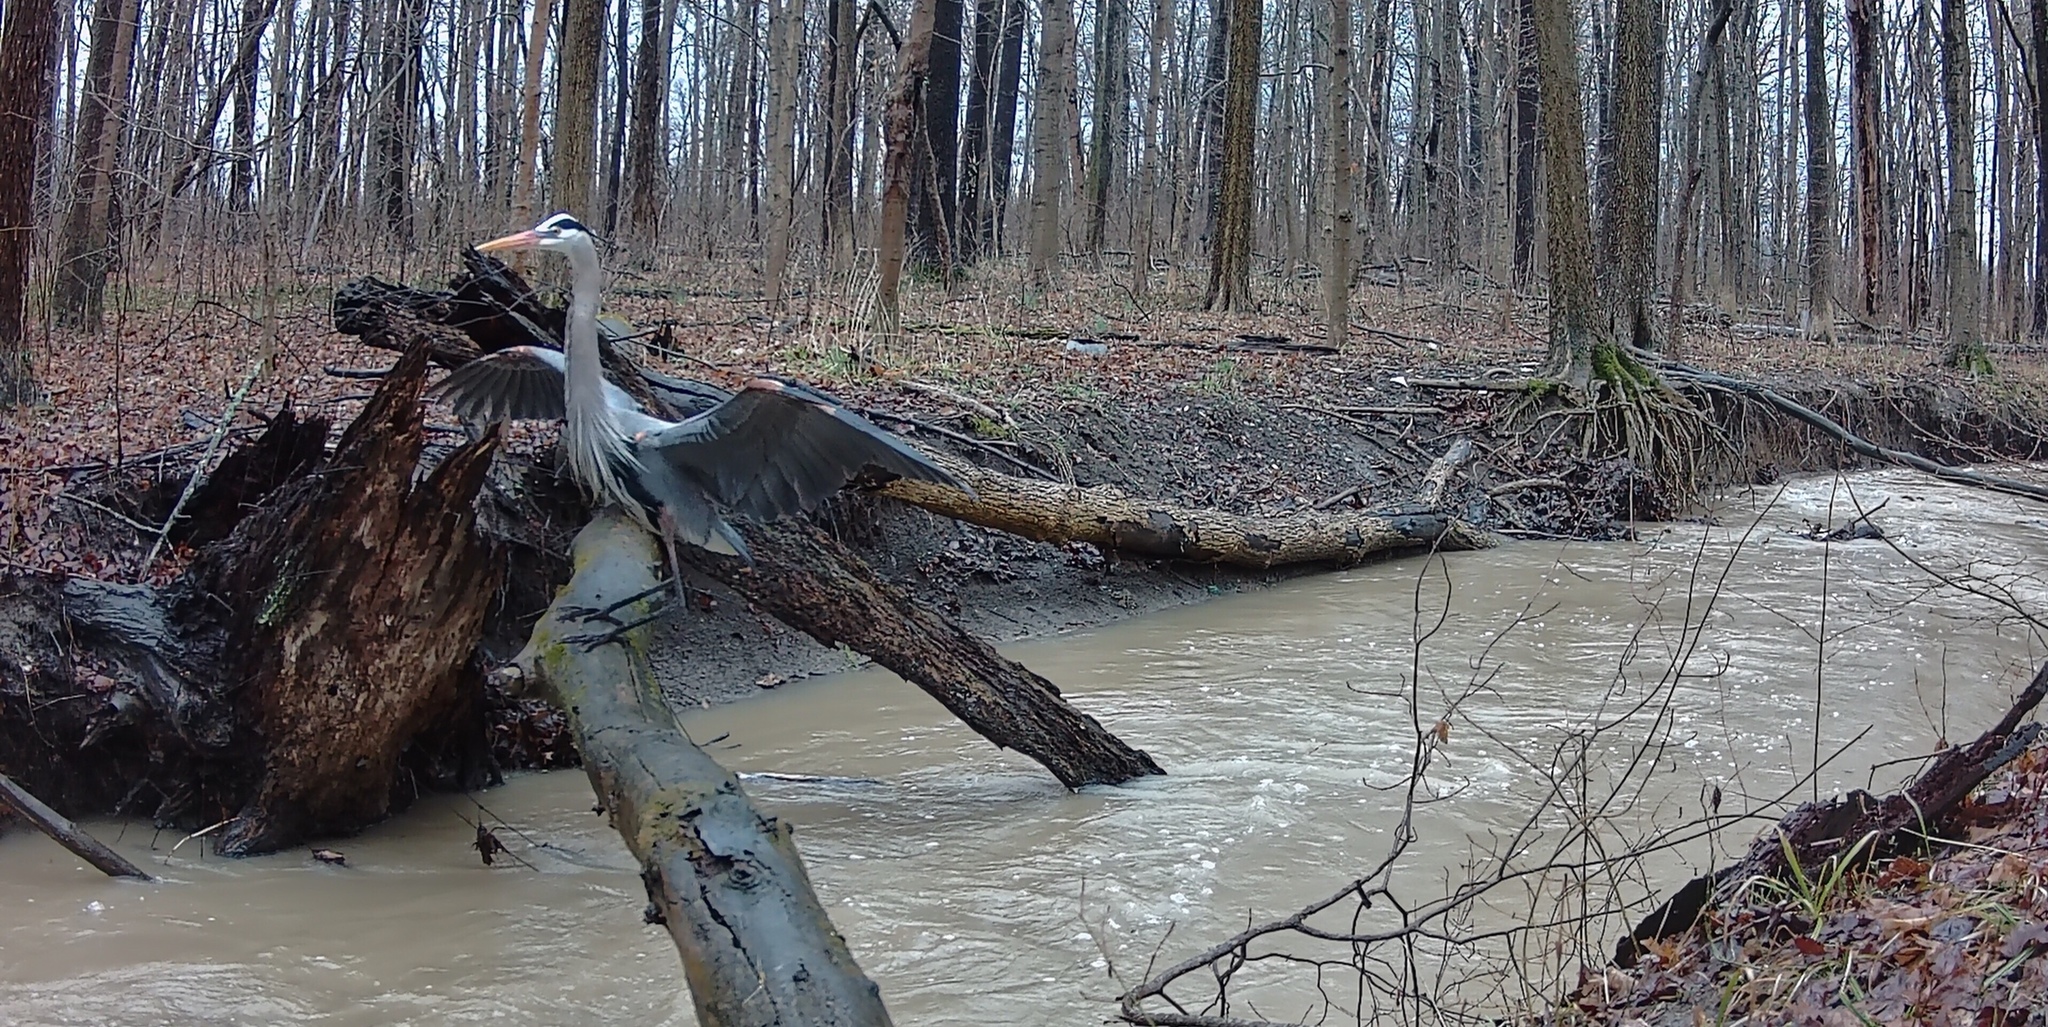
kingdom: Animalia
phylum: Chordata
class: Aves
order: Pelecaniformes
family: Ardeidae
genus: Ardea
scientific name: Ardea herodias
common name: Great blue heron
